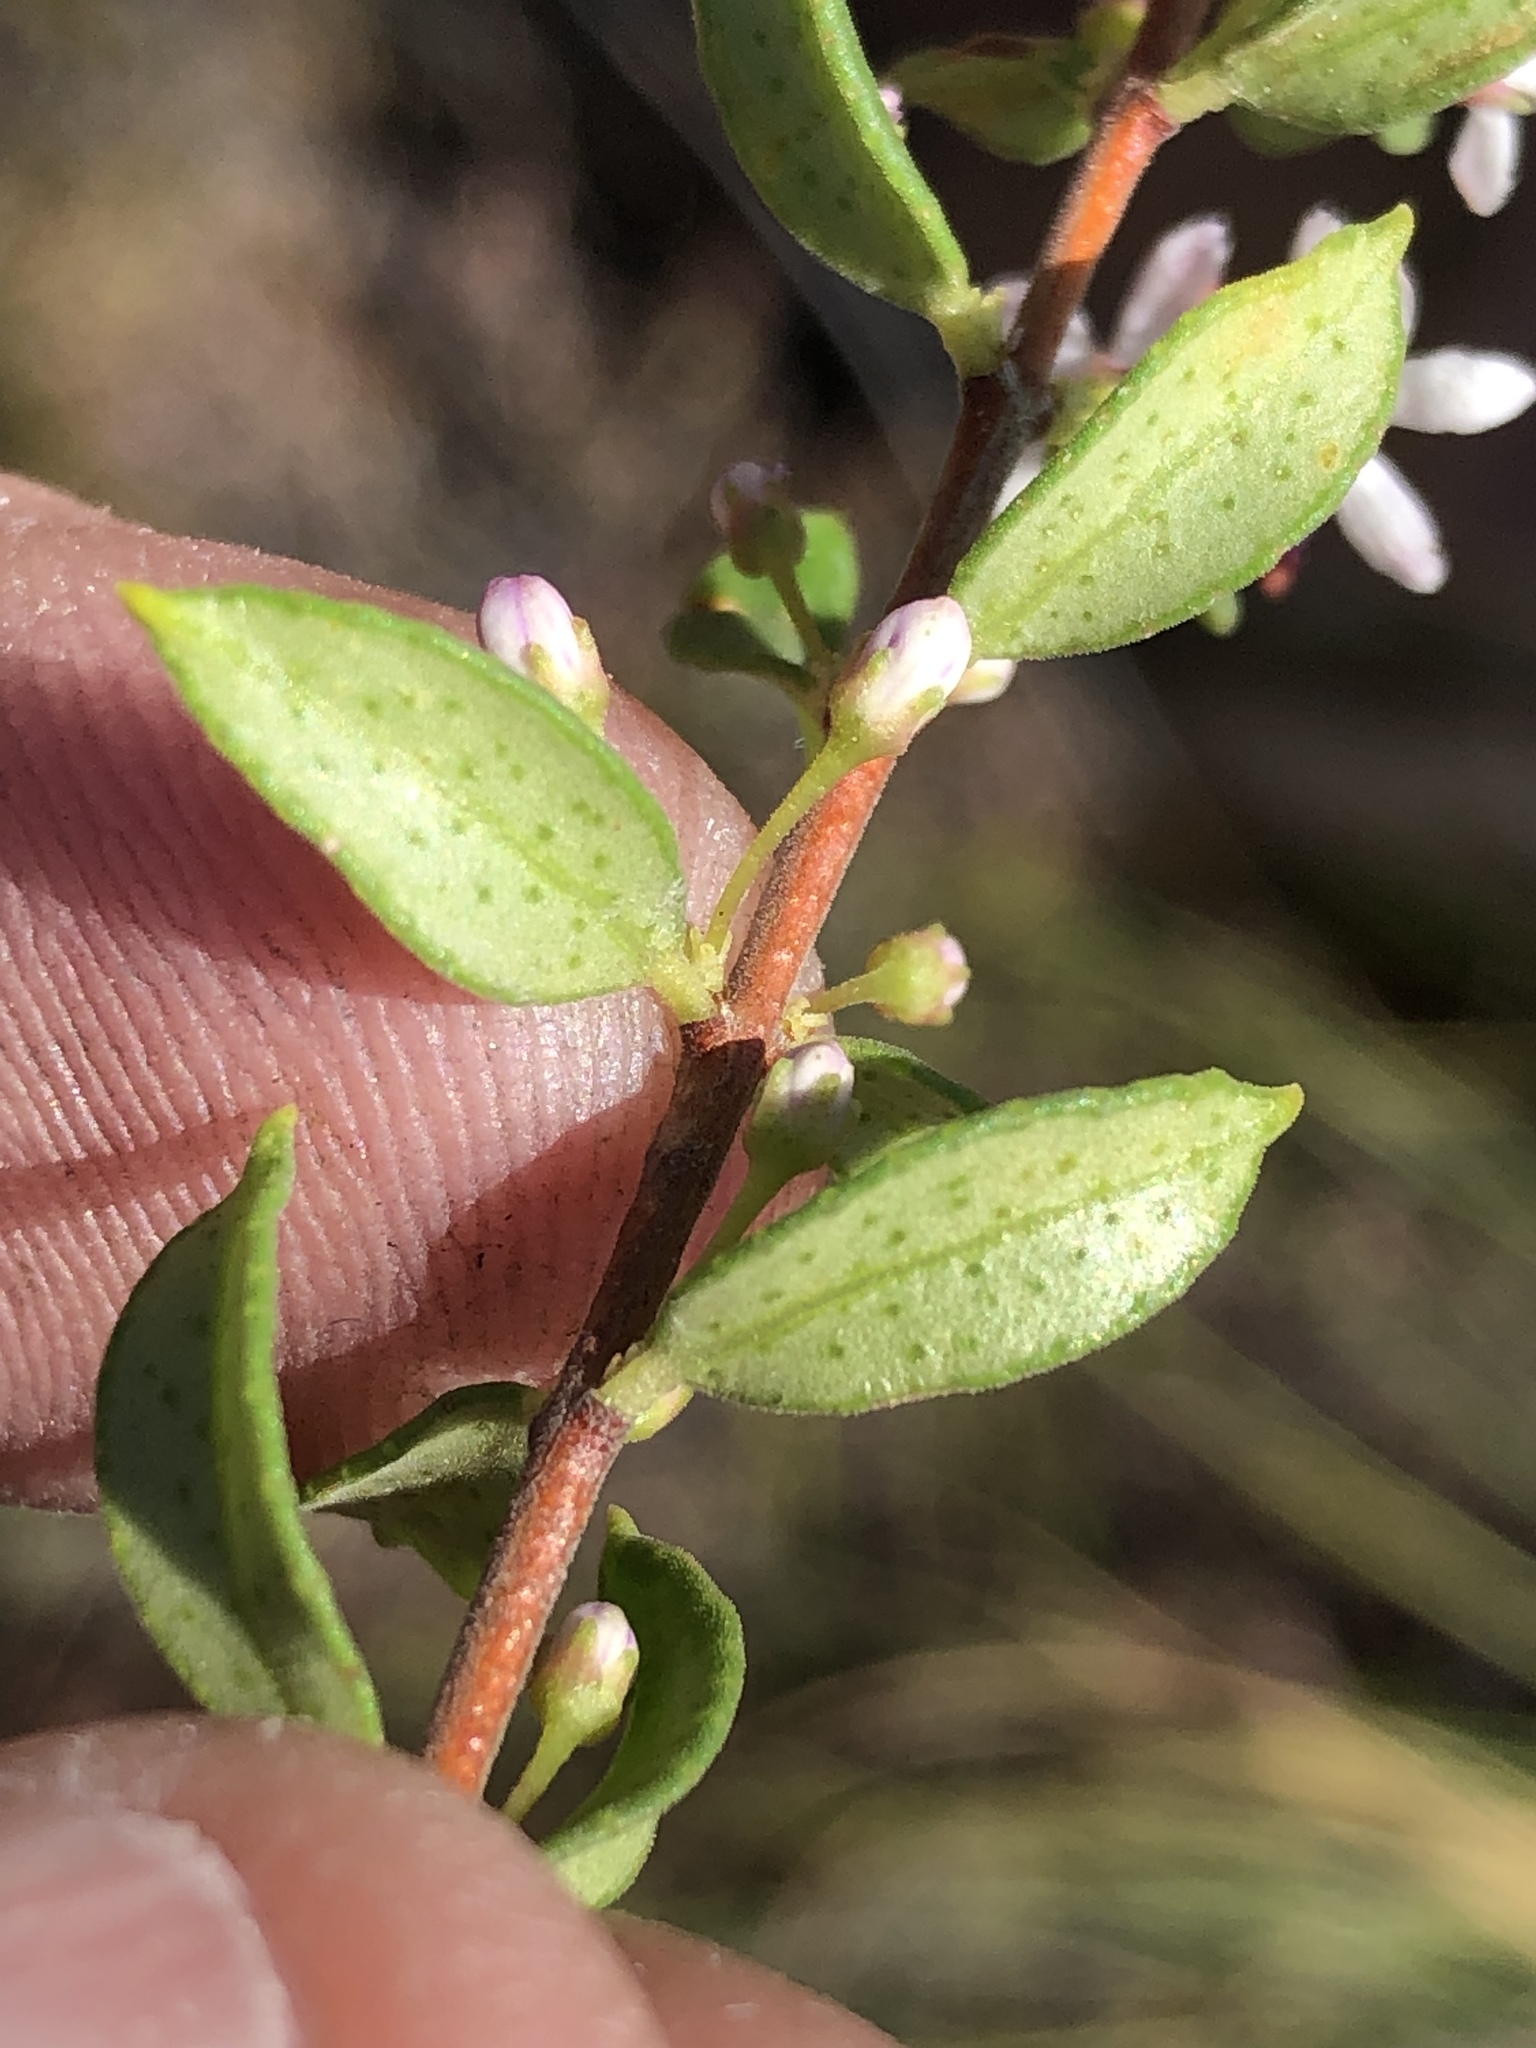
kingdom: Plantae
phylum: Tracheophyta
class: Magnoliopsida
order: Sapindales
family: Rutaceae
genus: Agathosma
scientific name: Agathosma ovata
